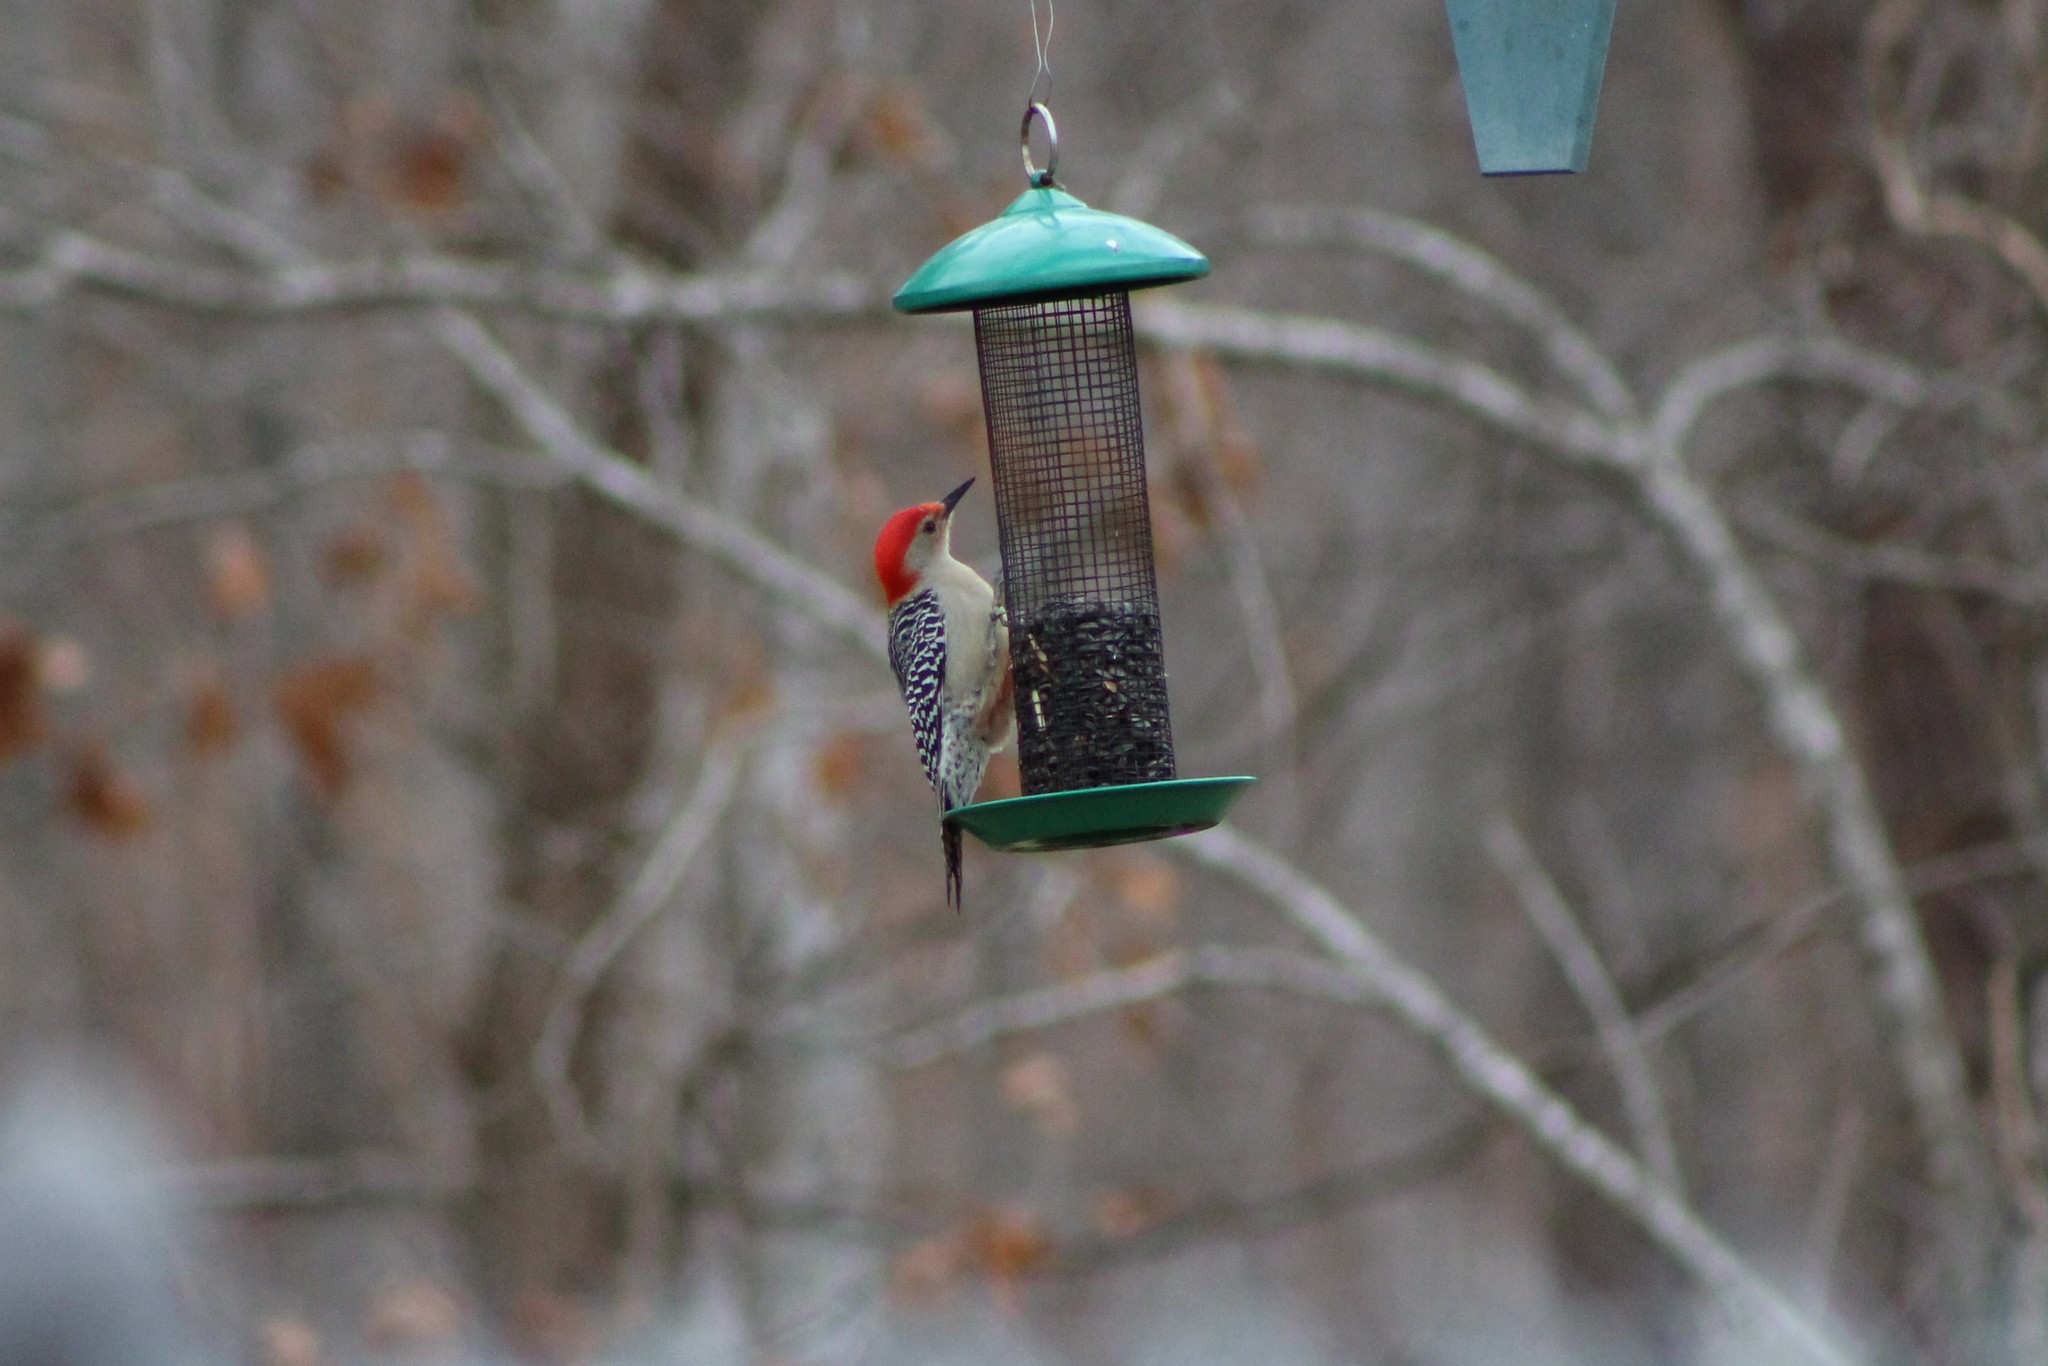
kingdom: Animalia
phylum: Chordata
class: Aves
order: Piciformes
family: Picidae
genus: Melanerpes
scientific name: Melanerpes carolinus
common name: Red-bellied woodpecker
